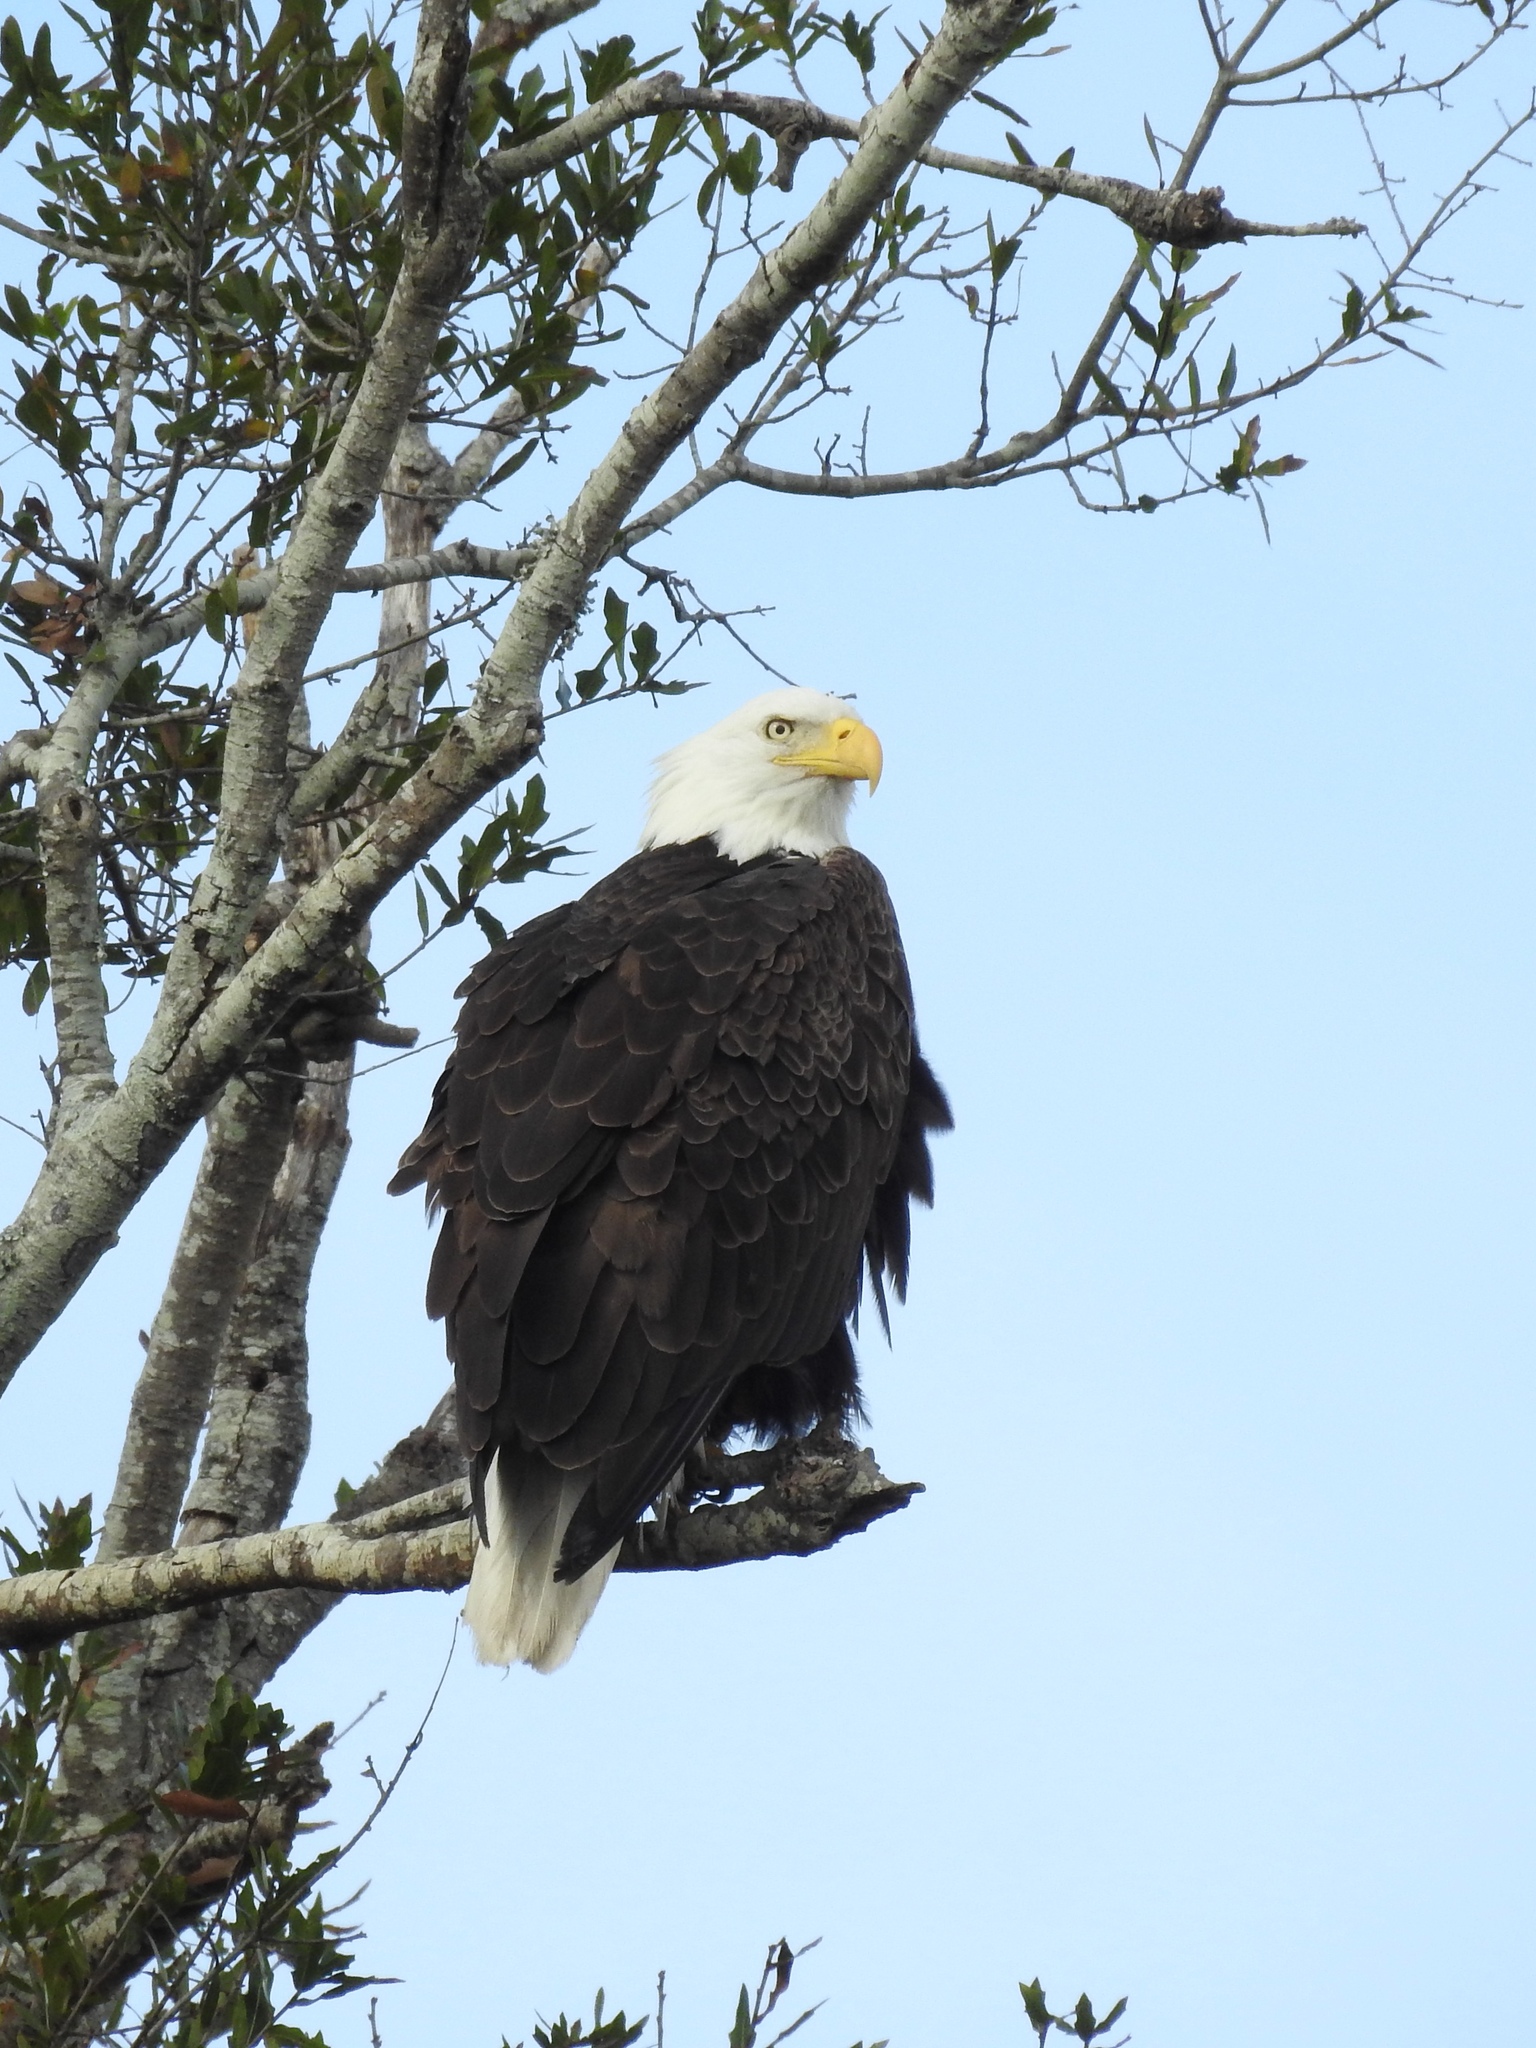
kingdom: Animalia
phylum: Chordata
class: Aves
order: Accipitriformes
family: Accipitridae
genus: Haliaeetus
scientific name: Haliaeetus leucocephalus
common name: Bald eagle
